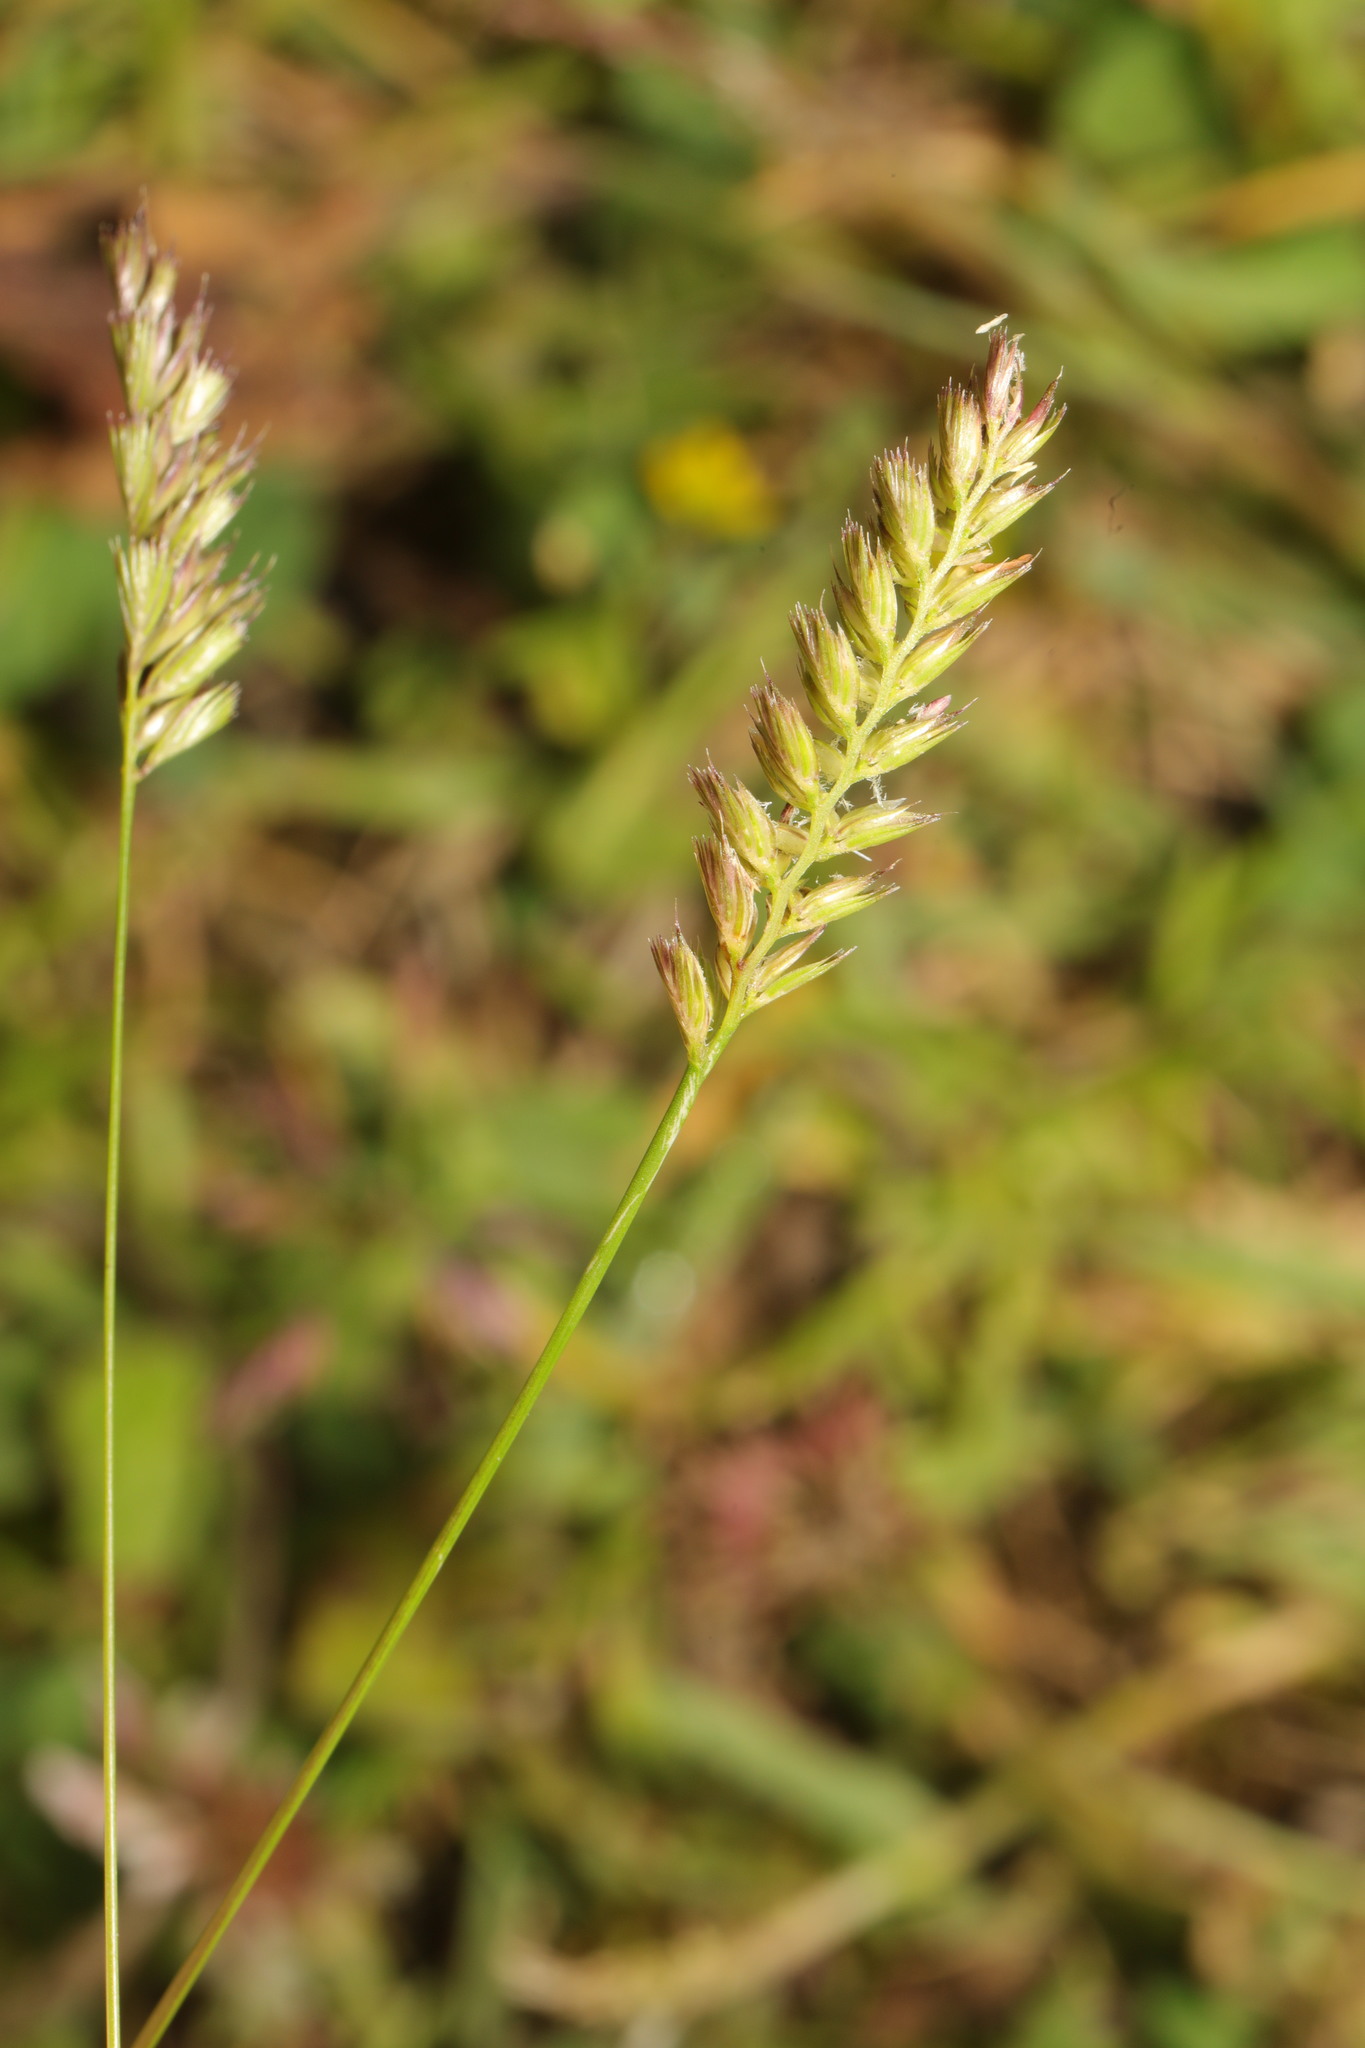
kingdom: Plantae
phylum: Tracheophyta
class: Liliopsida
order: Poales
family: Poaceae
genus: Cynosurus
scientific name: Cynosurus cristatus
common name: Crested dog's-tail
